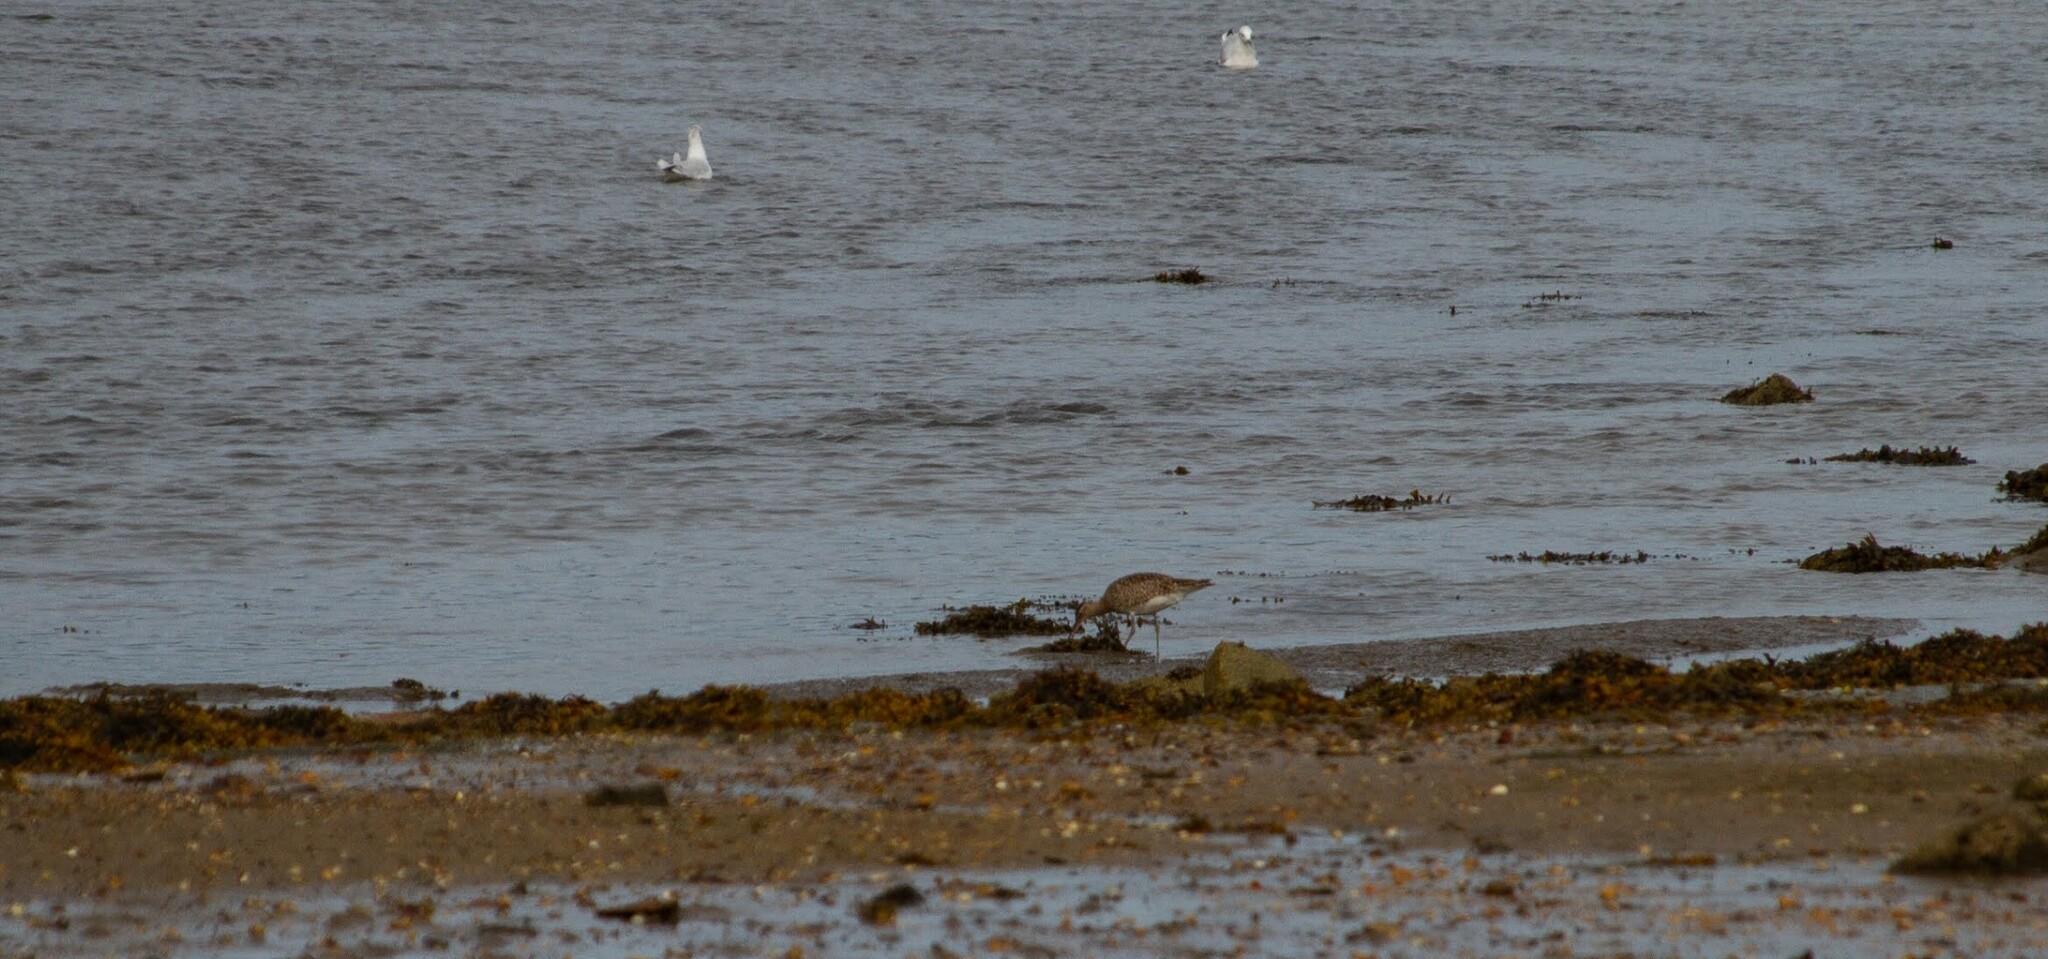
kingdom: Animalia
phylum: Chordata
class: Aves
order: Charadriiformes
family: Scolopacidae
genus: Numenius
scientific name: Numenius phaeopus
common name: Whimbrel
